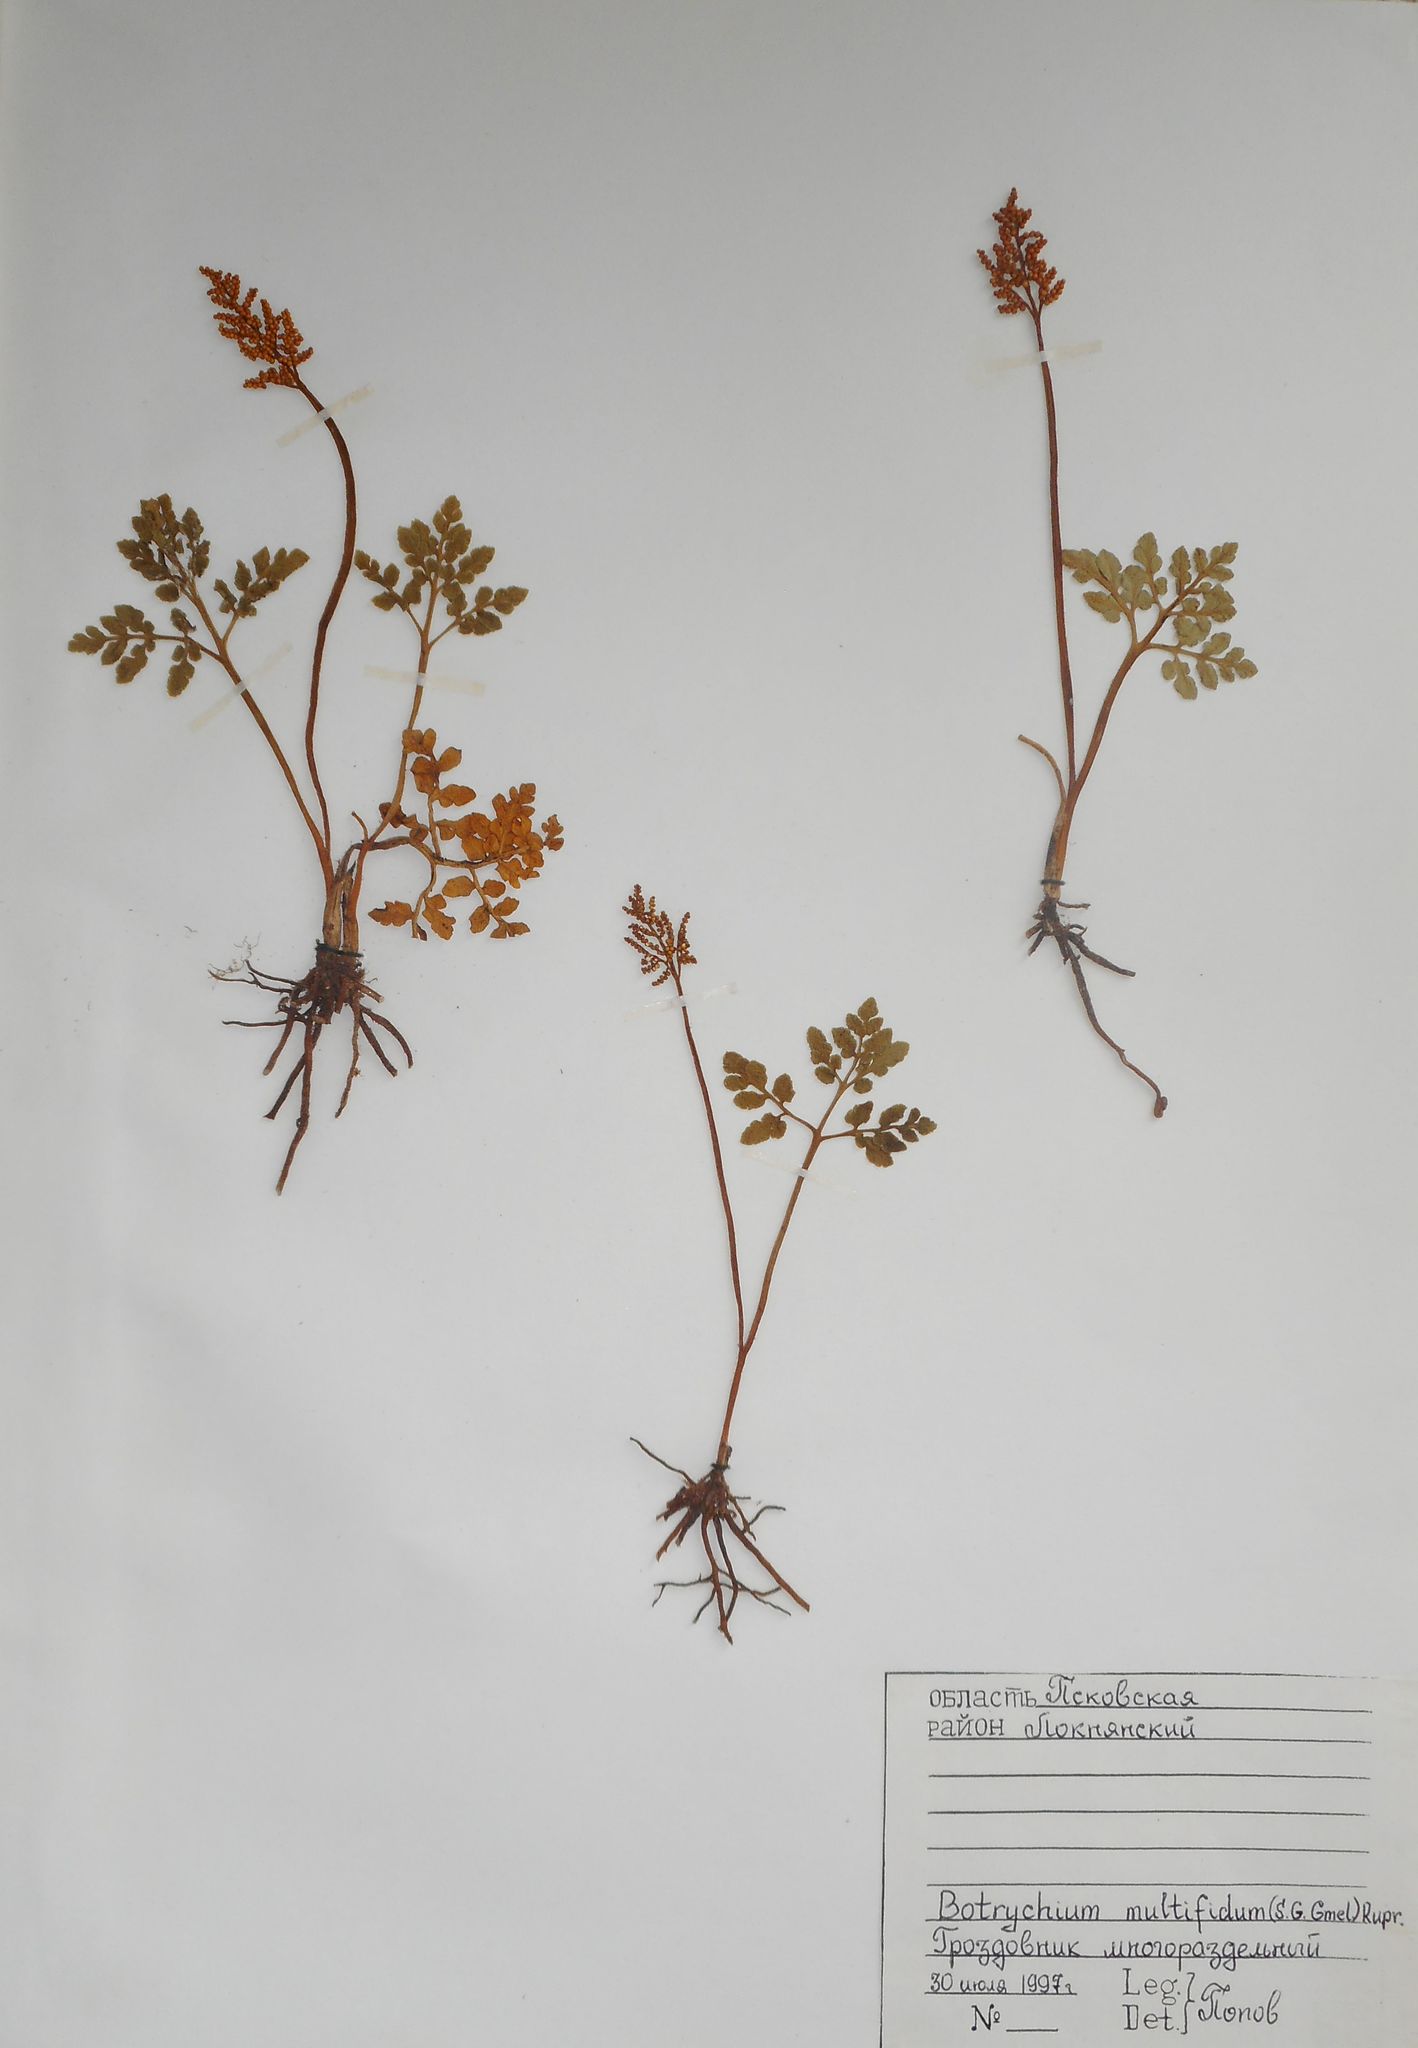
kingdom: Plantae
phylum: Tracheophyta
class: Polypodiopsida
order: Ophioglossales
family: Ophioglossaceae
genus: Sceptridium
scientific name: Sceptridium multifidum
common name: Leathery grape fern
